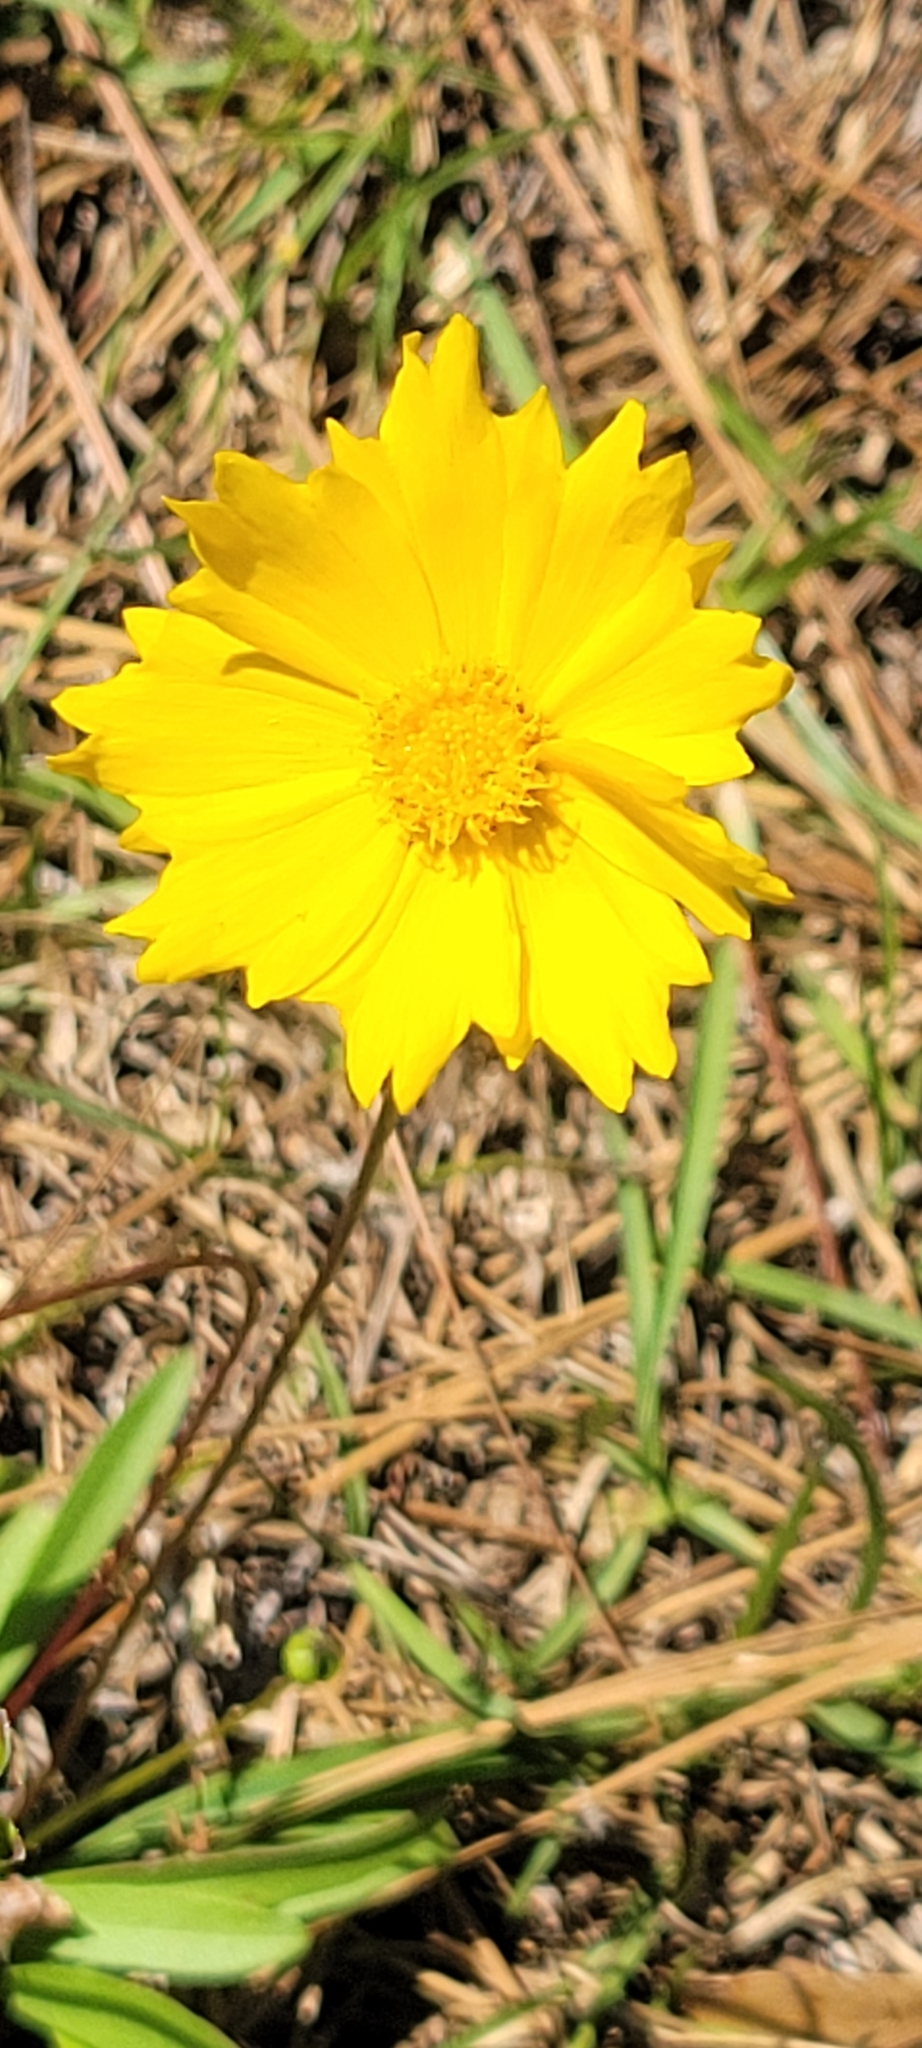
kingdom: Plantae
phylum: Tracheophyta
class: Magnoliopsida
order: Asterales
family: Asteraceae
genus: Coreopsis
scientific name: Coreopsis lanceolata
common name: Garden coreopsis
